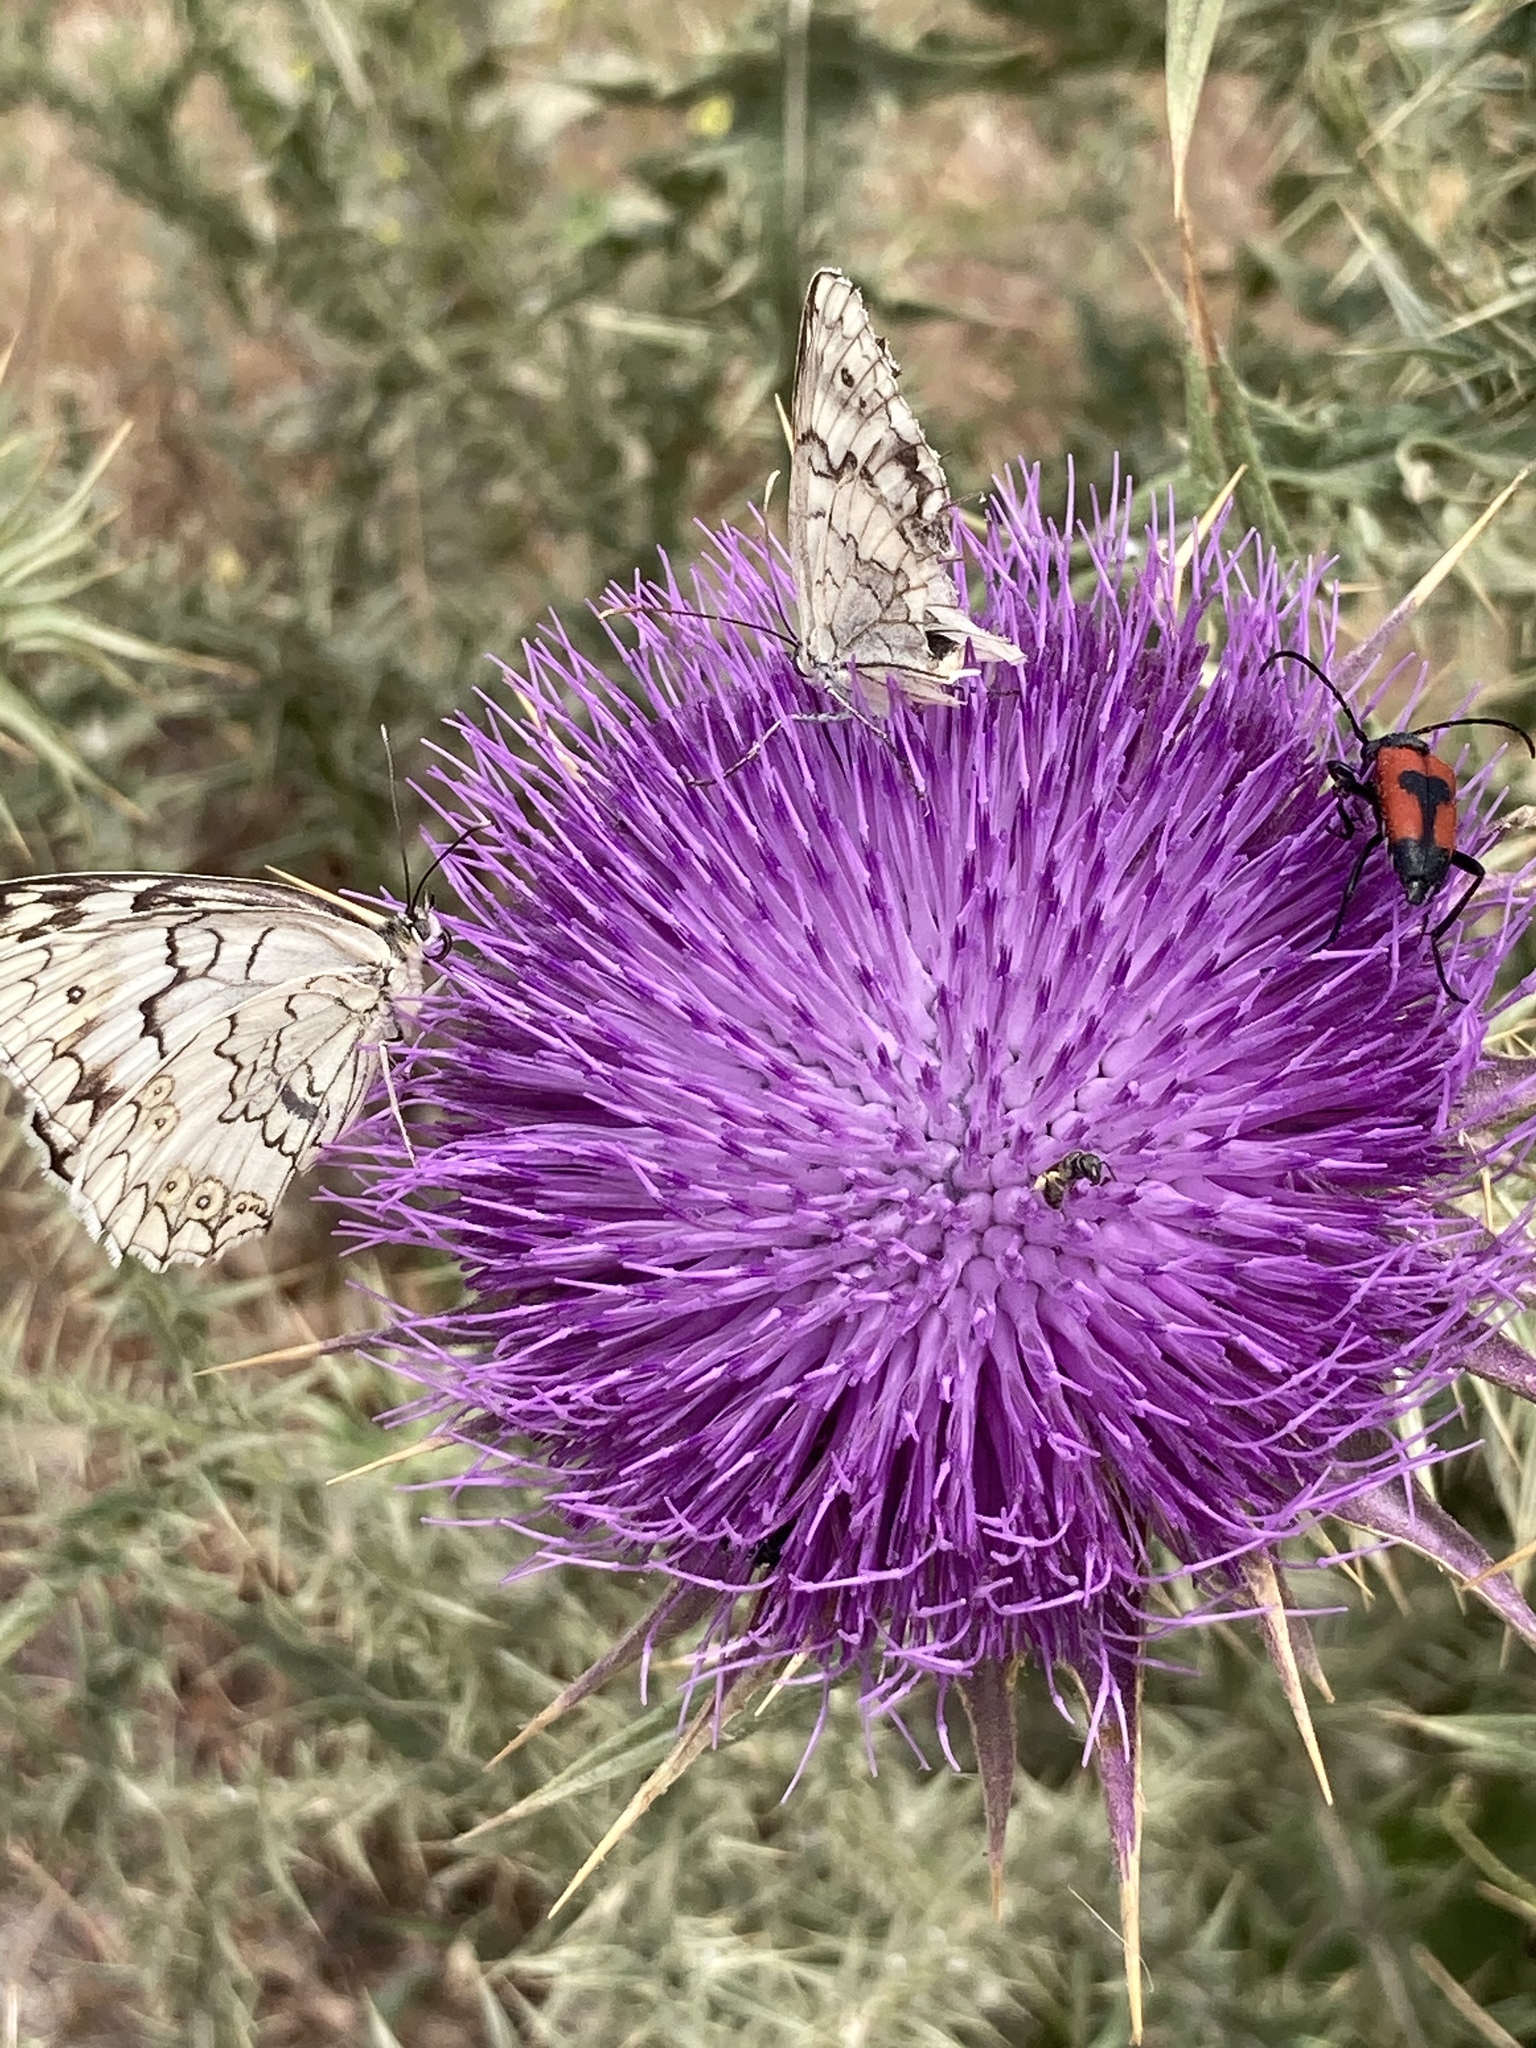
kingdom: Animalia
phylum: Arthropoda
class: Insecta
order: Lepidoptera
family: Nymphalidae
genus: Melanargia
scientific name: Melanargia larissa
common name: Balkan marbled white
